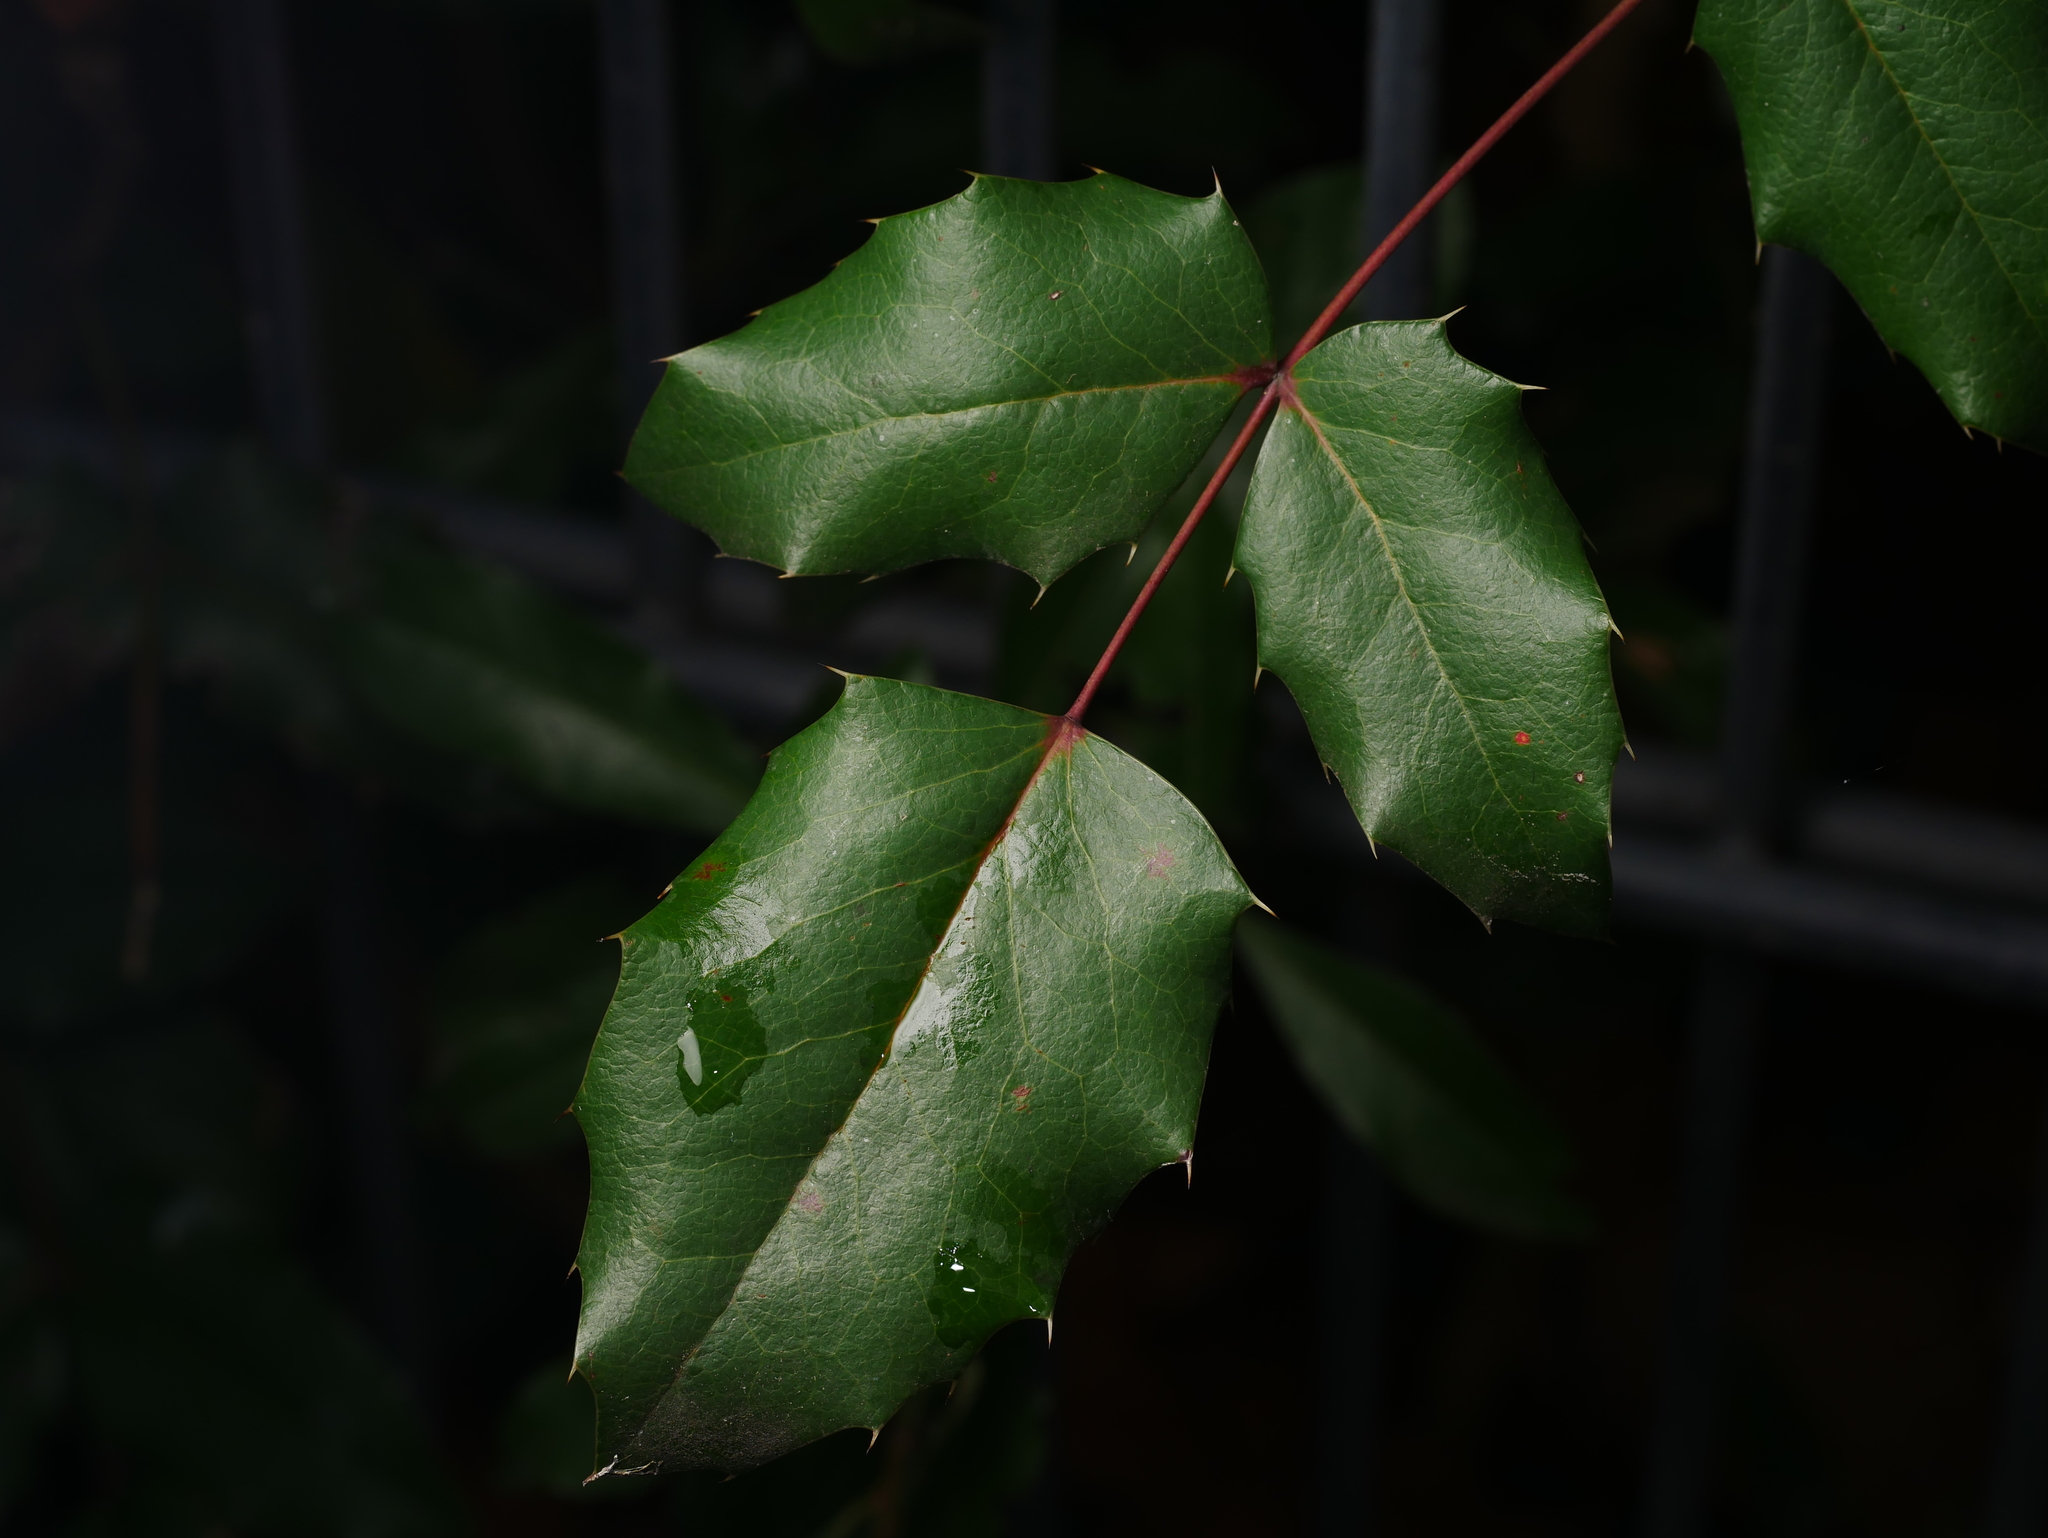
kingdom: Plantae
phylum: Tracheophyta
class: Magnoliopsida
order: Ranunculales
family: Berberidaceae
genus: Mahonia
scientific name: Mahonia aquifolium
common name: Oregon-grape
